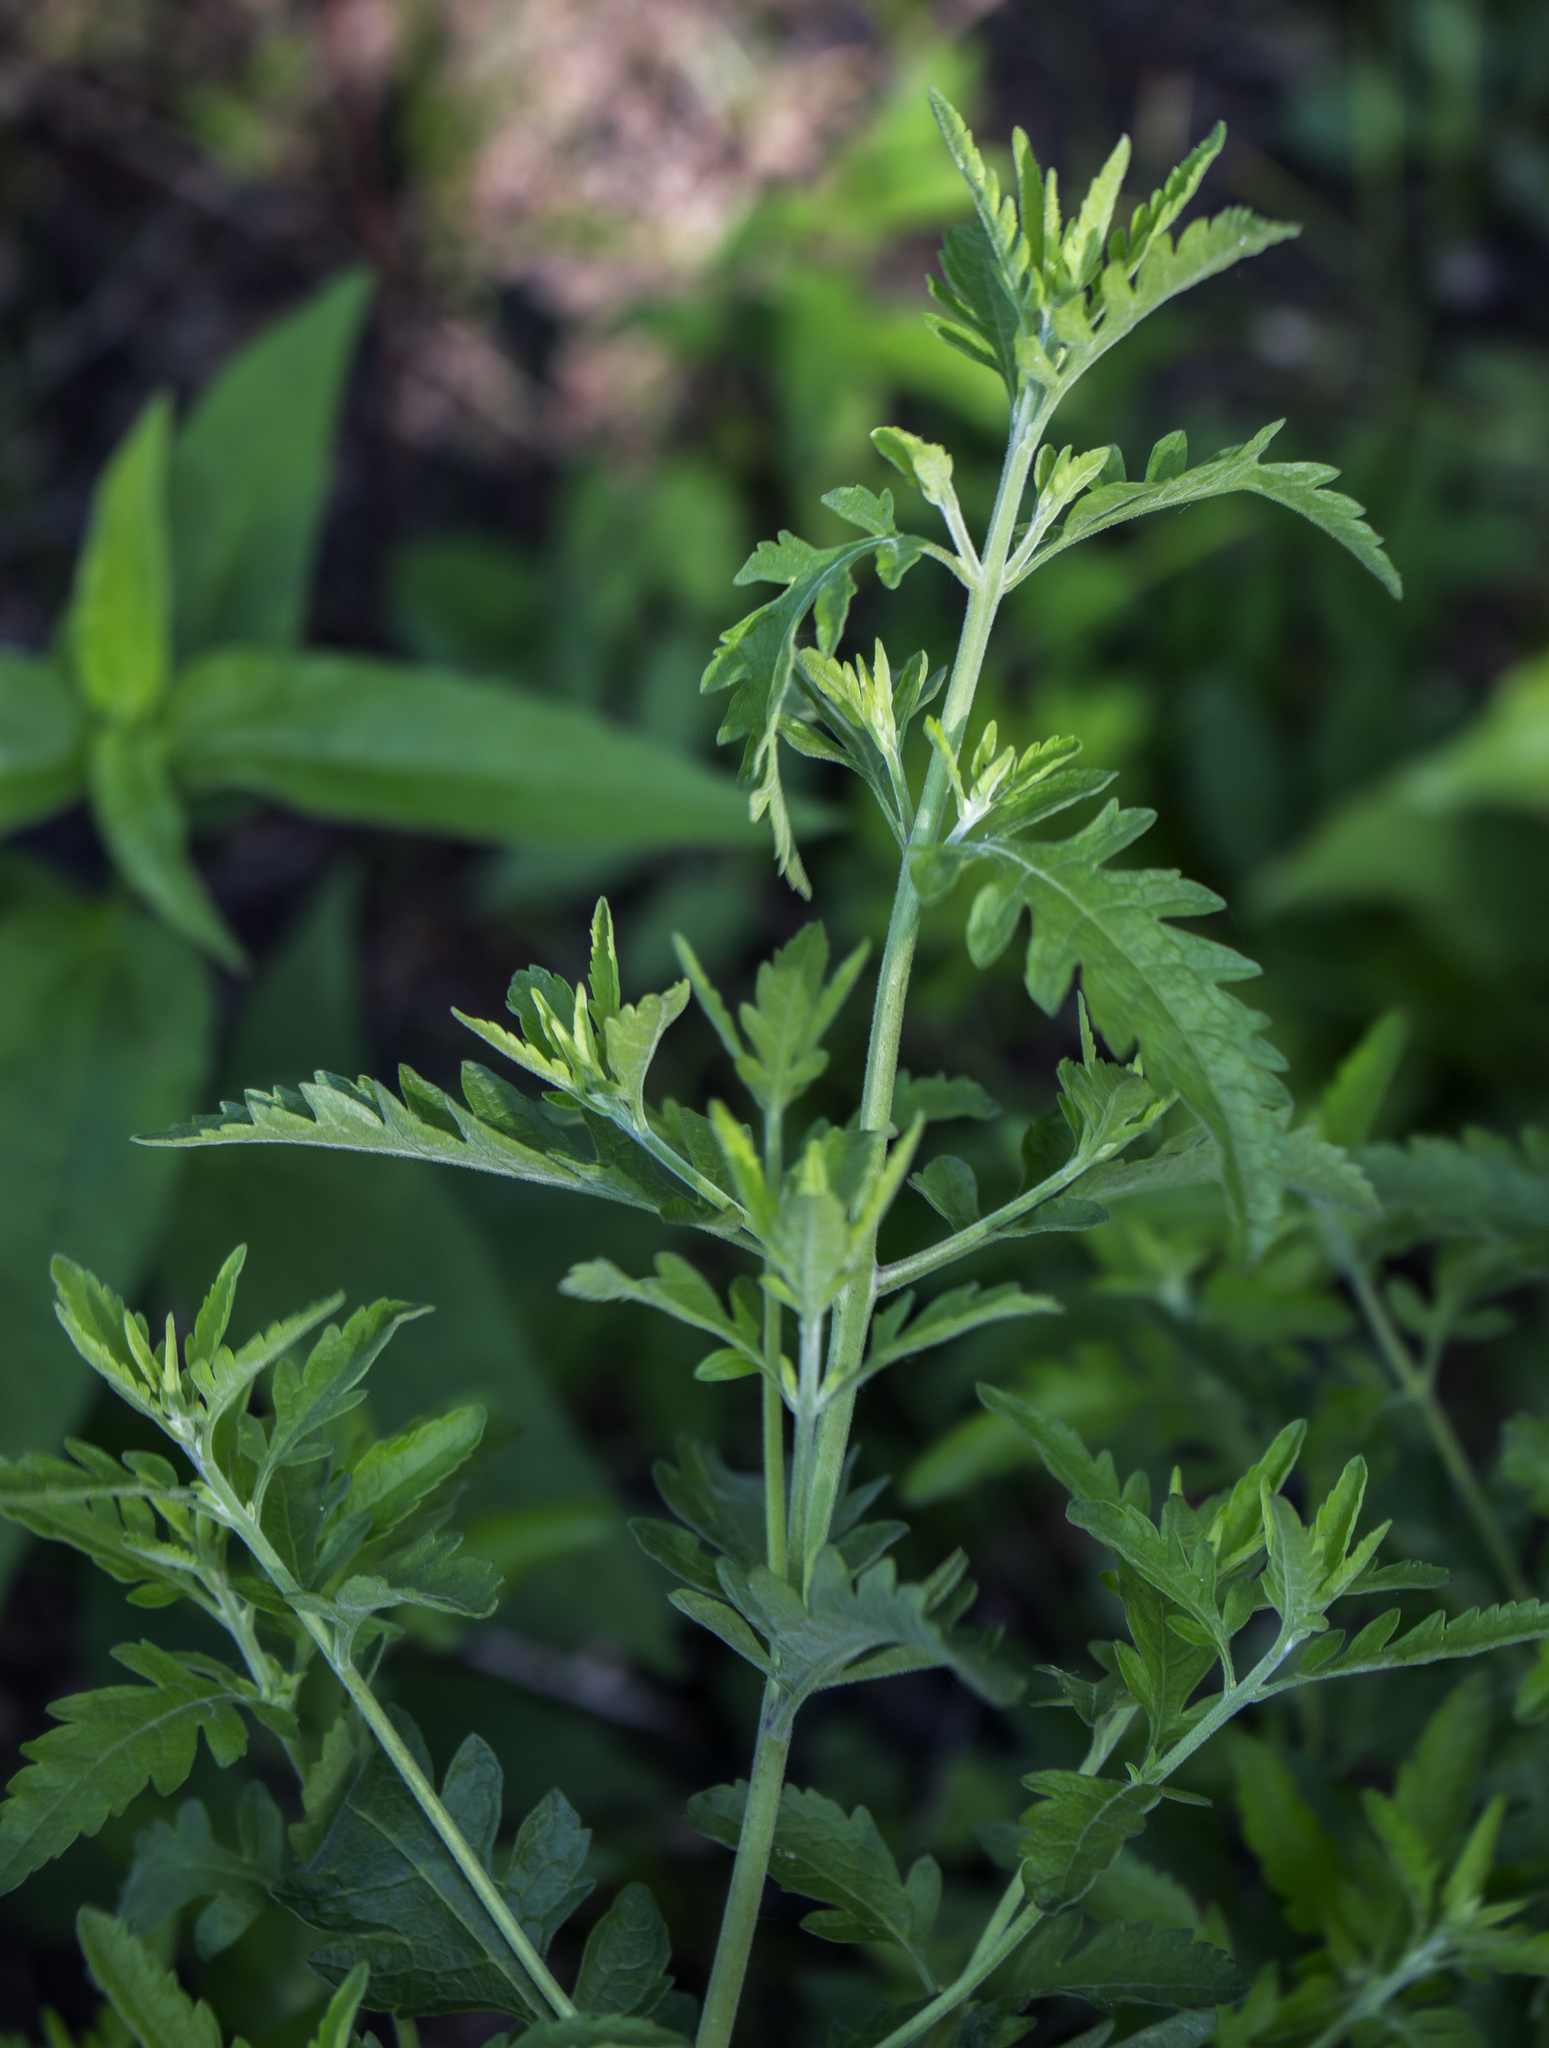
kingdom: Plantae
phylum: Tracheophyta
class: Magnoliopsida
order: Lamiales
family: Orobanchaceae
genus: Aureolaria
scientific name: Aureolaria grandiflora
